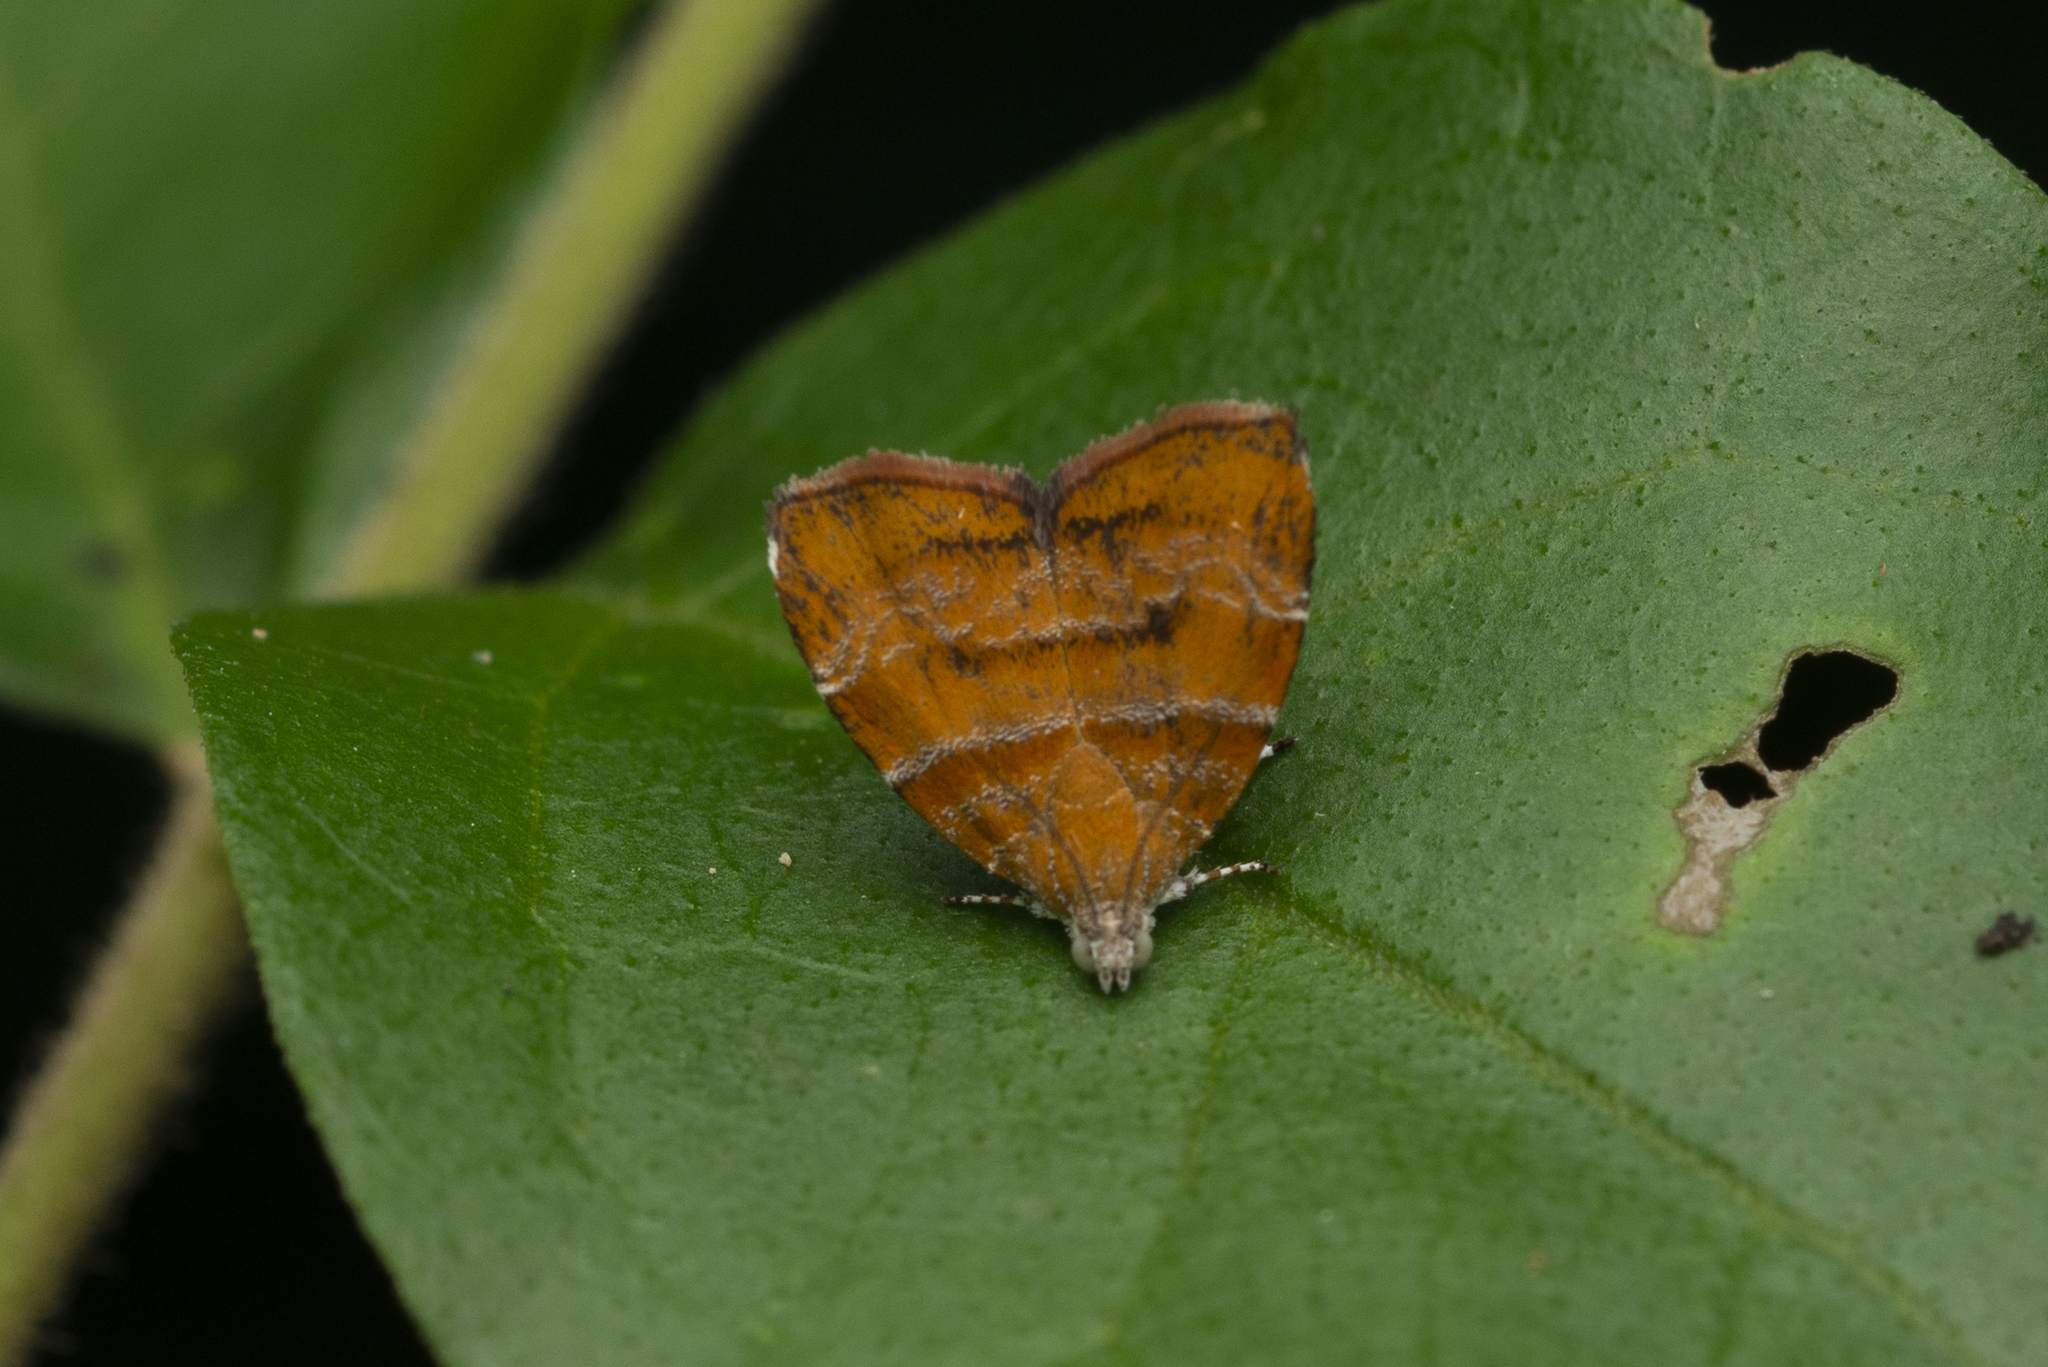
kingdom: Animalia
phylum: Arthropoda
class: Insecta
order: Lepidoptera
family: Choreutidae
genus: Anthophila
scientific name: Anthophila achyrodes
